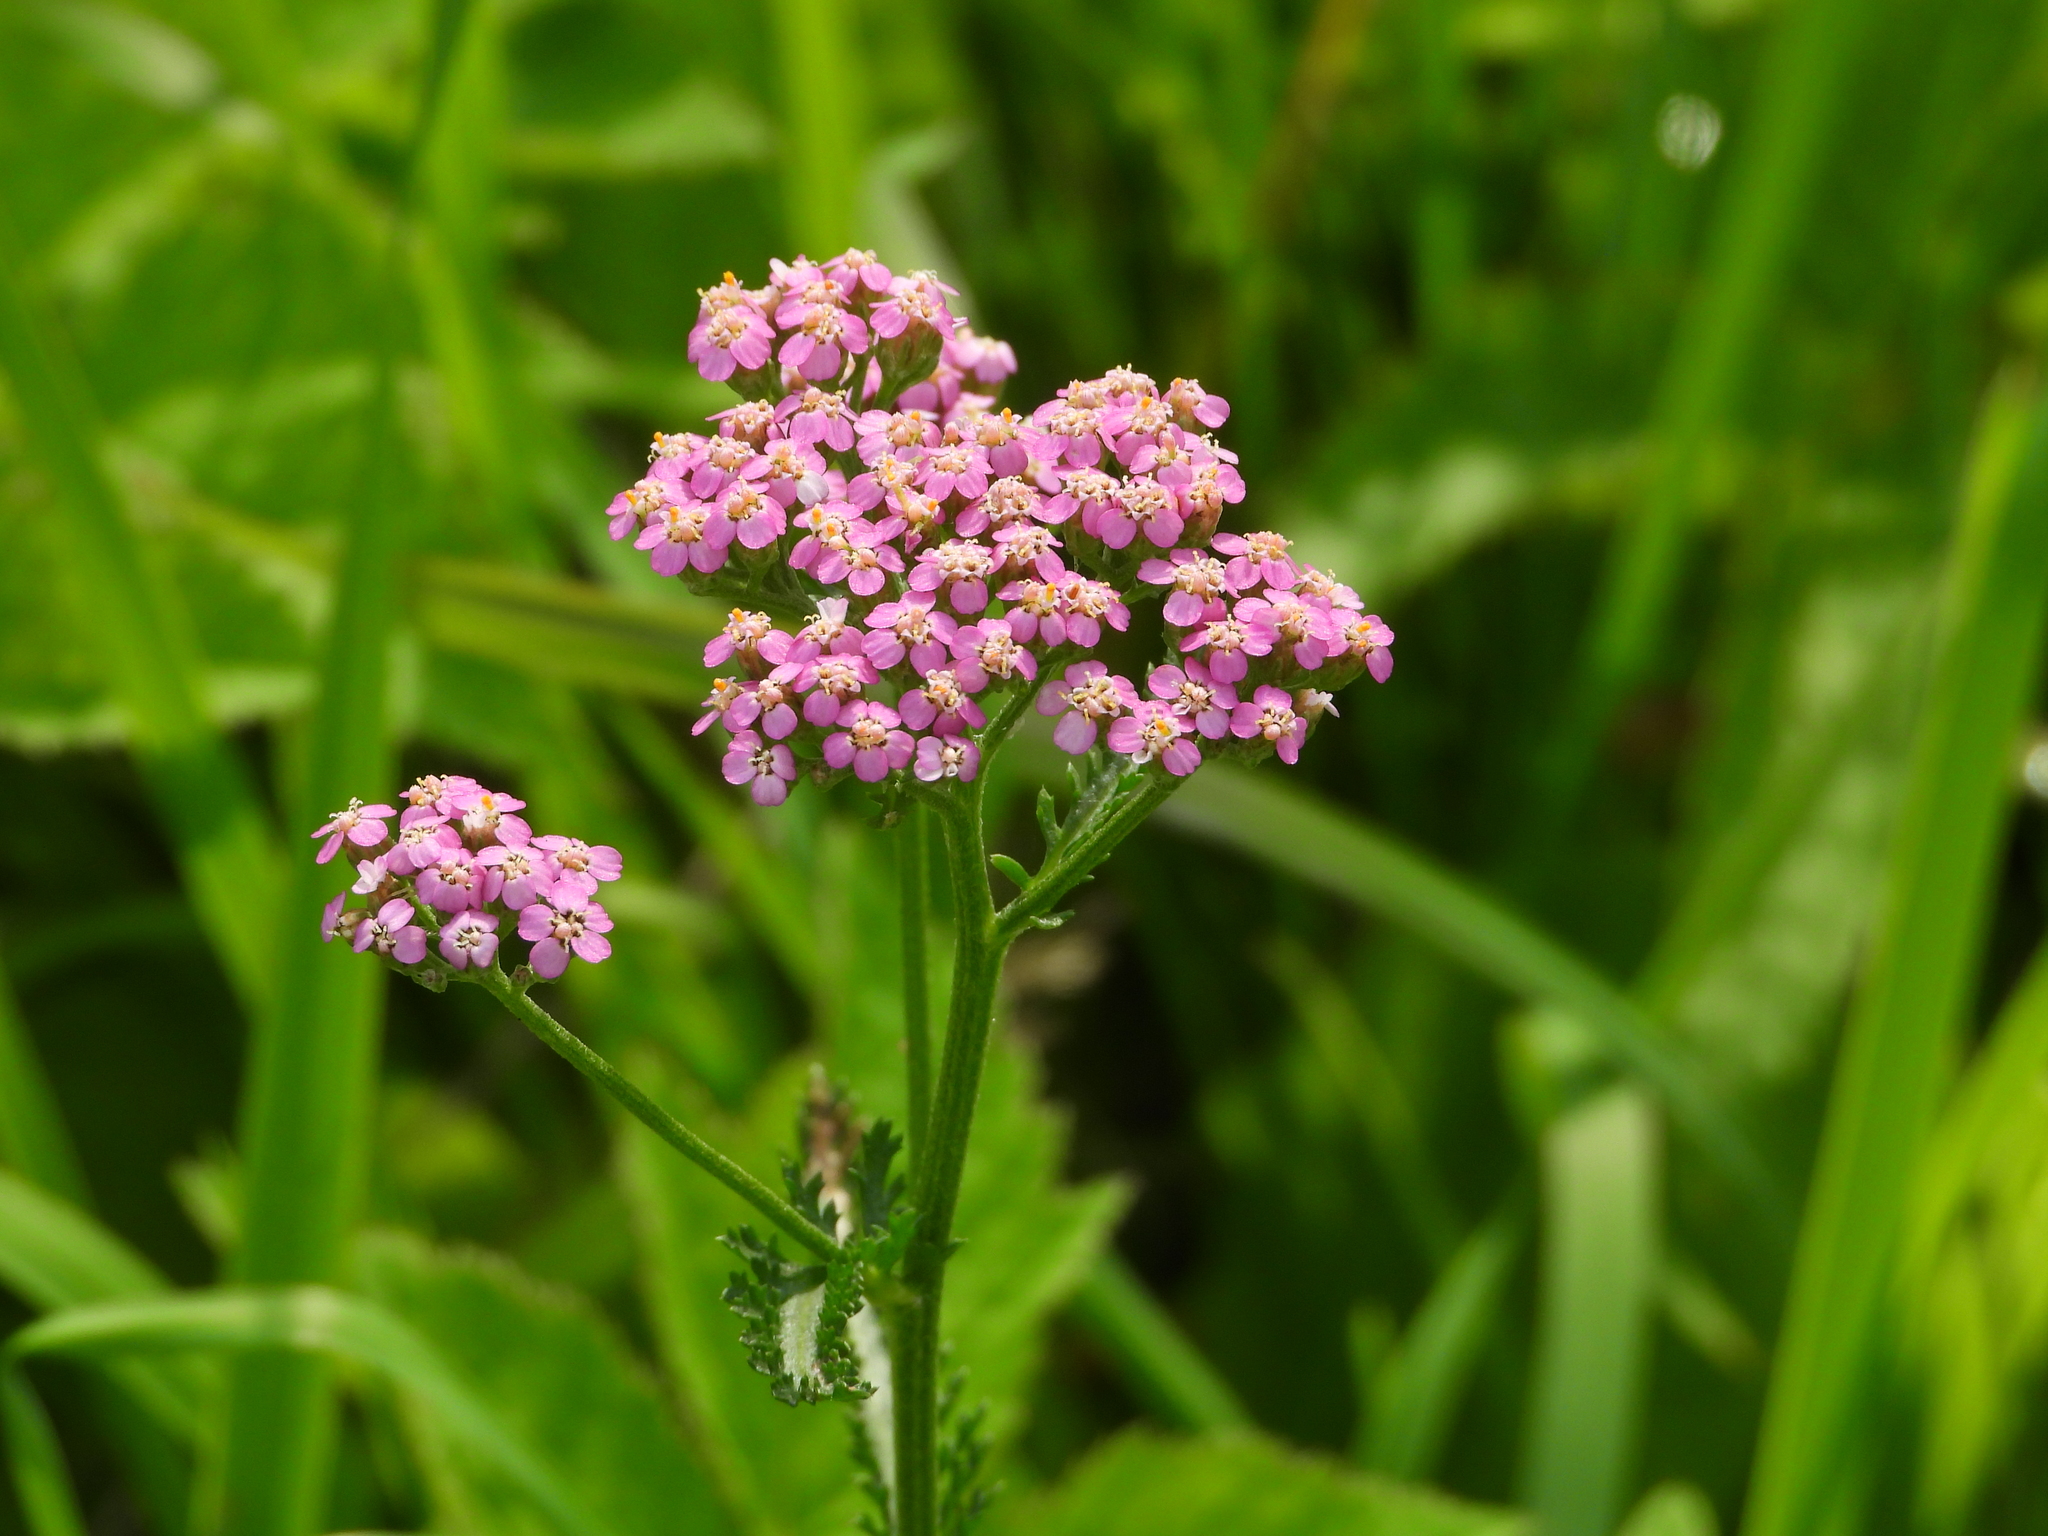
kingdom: Plantae
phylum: Tracheophyta
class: Magnoliopsida
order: Asterales
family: Asteraceae
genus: Achillea
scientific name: Achillea millefolium
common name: Yarrow
